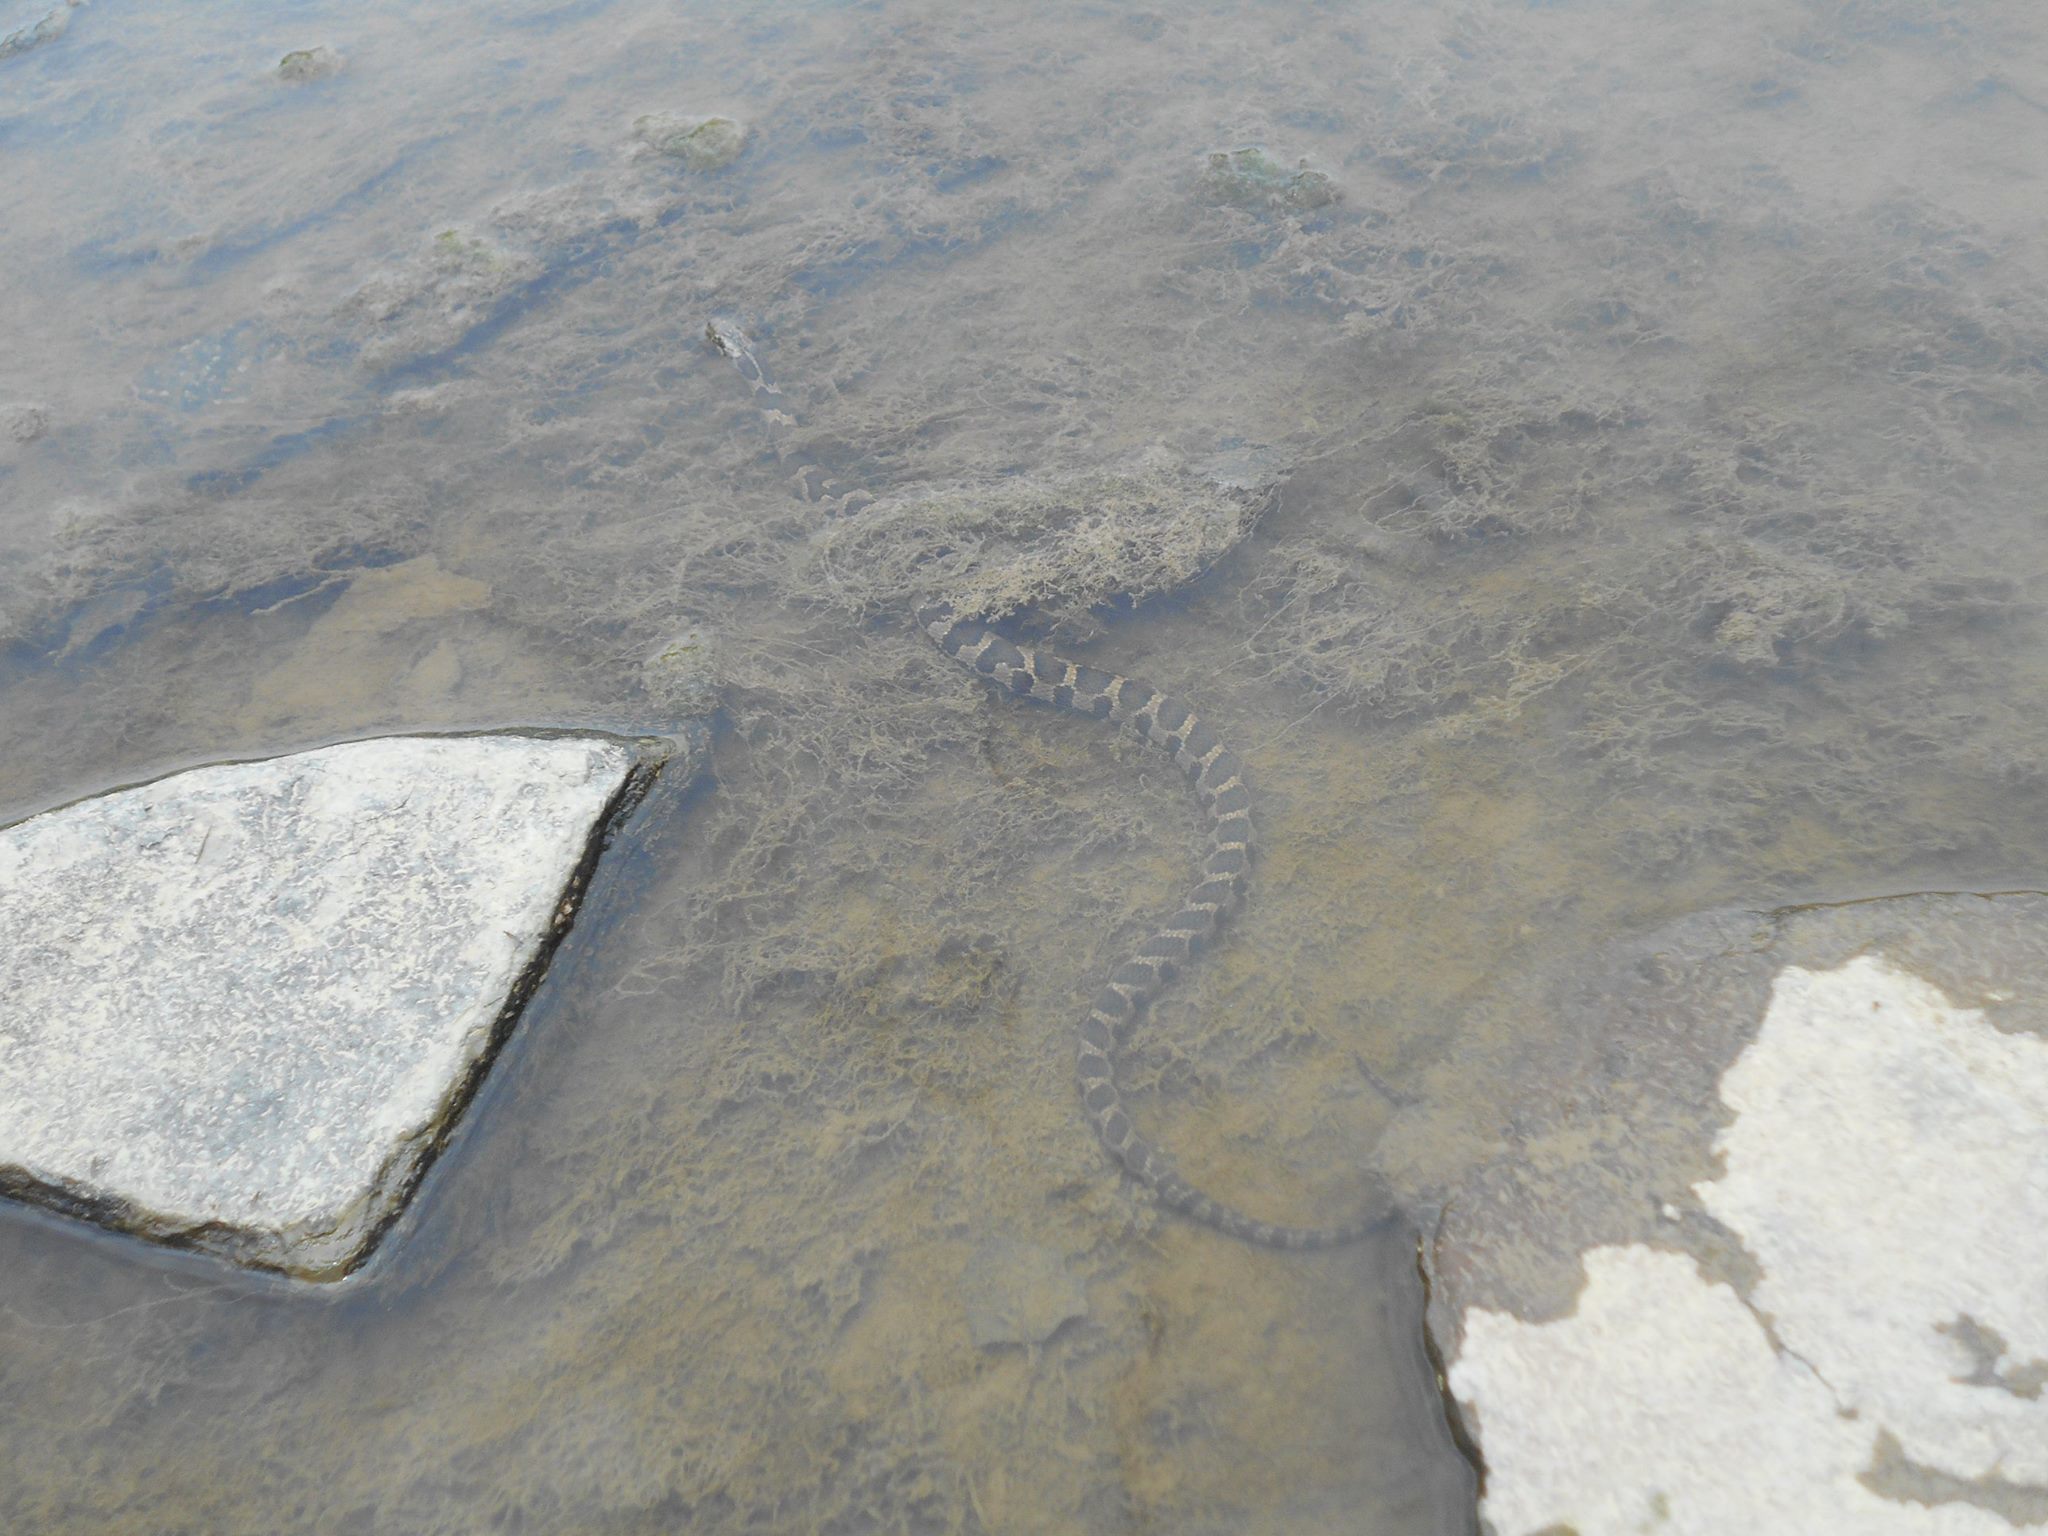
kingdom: Animalia
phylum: Chordata
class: Squamata
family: Colubridae
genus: Nerodia
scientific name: Nerodia sipedon
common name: Northern water snake
